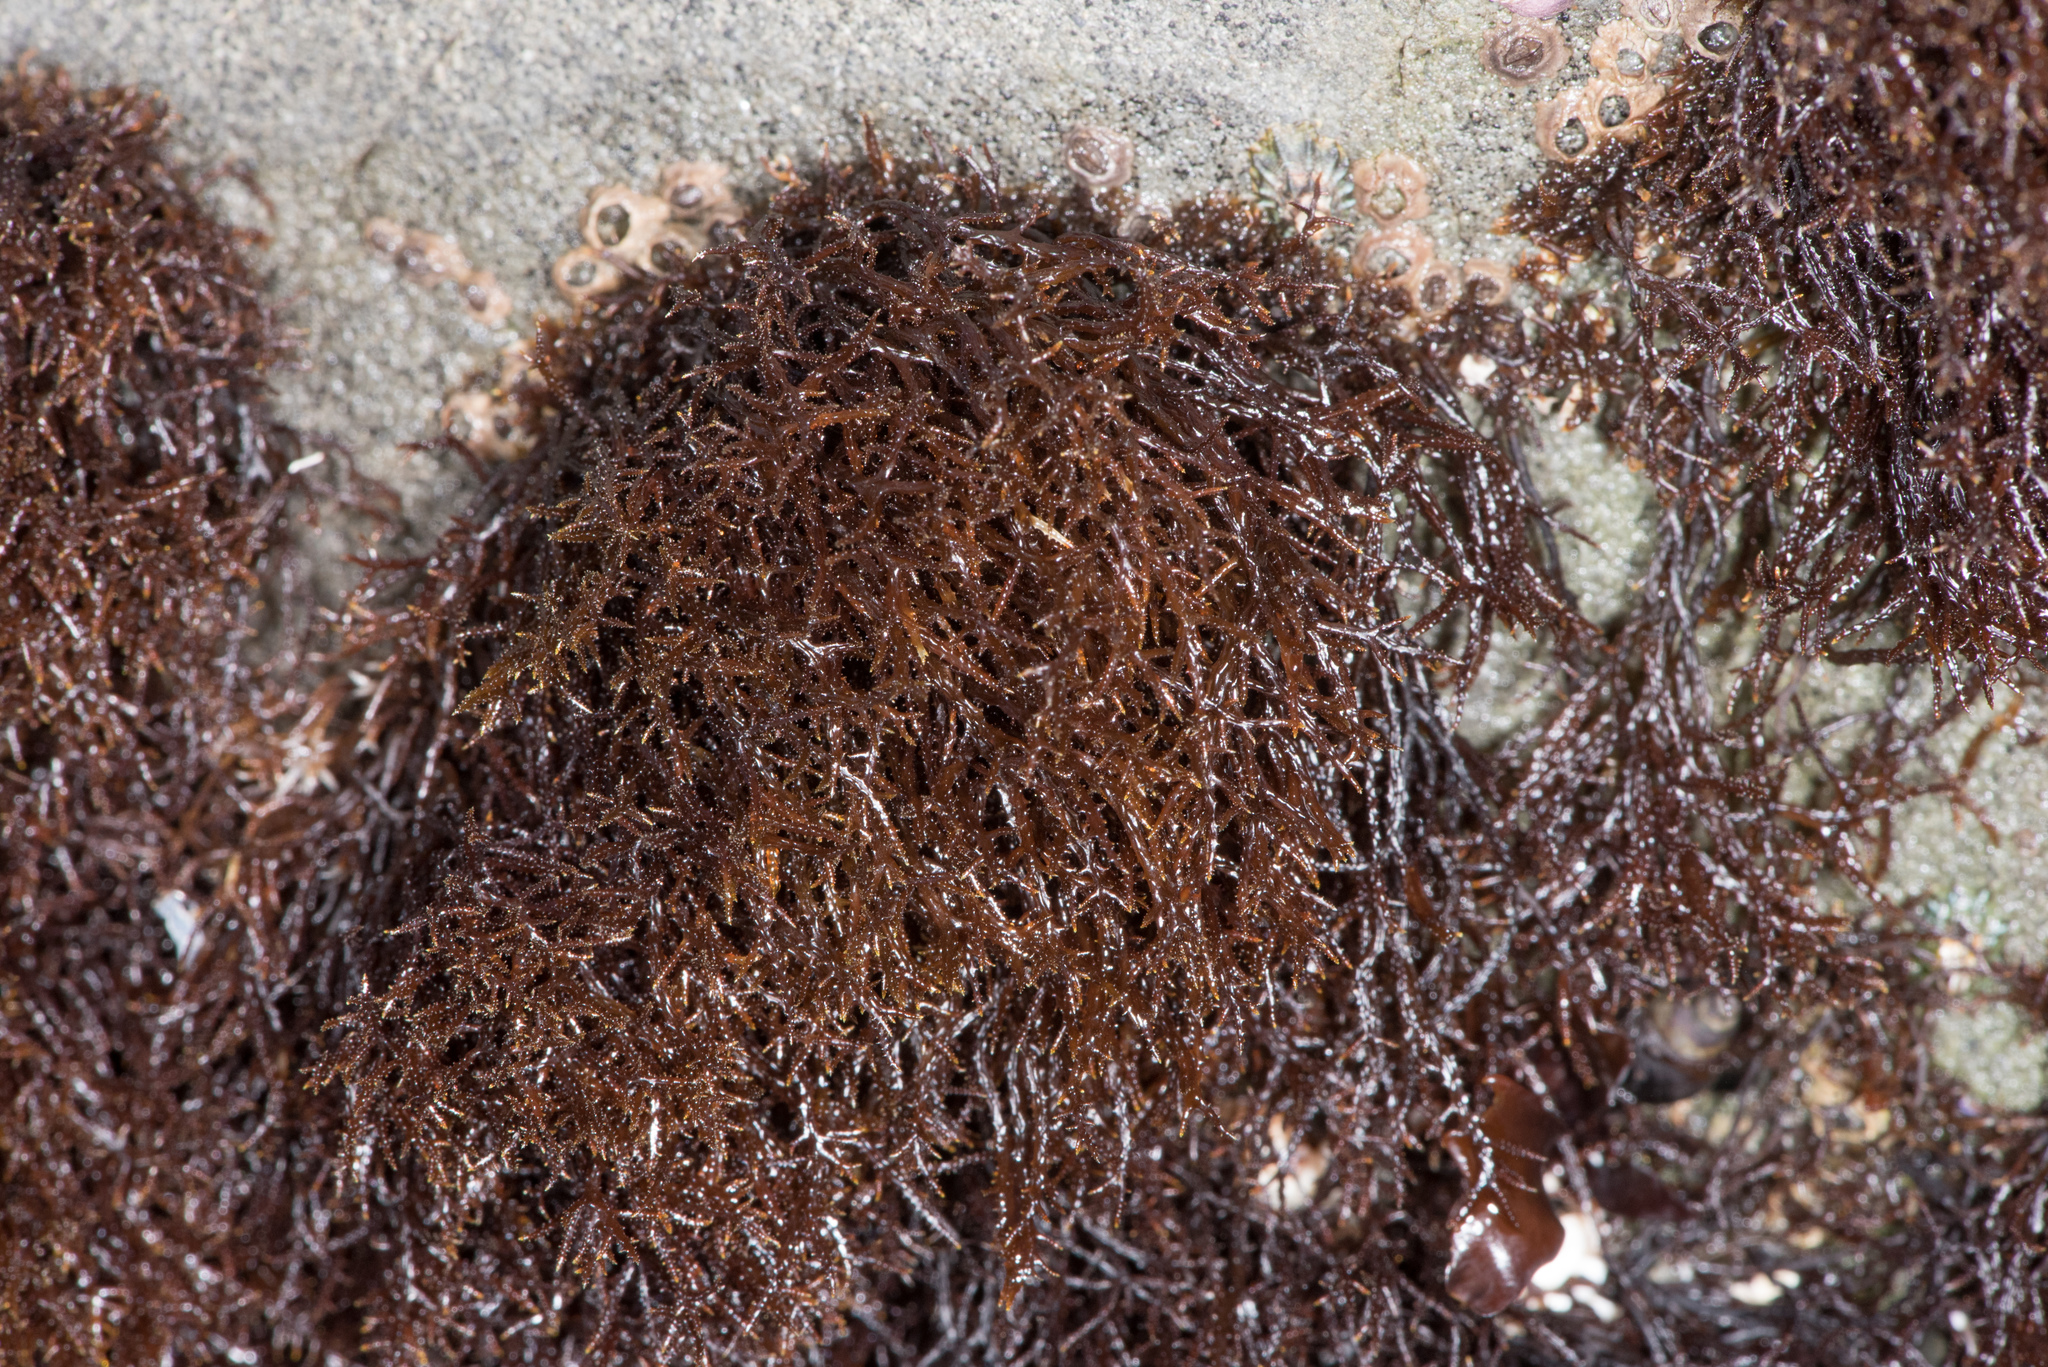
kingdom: Plantae
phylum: Rhodophyta
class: Florideophyceae
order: Gigartinales
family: Endocladiaceae
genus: Endocladia
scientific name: Endocladia muricata
